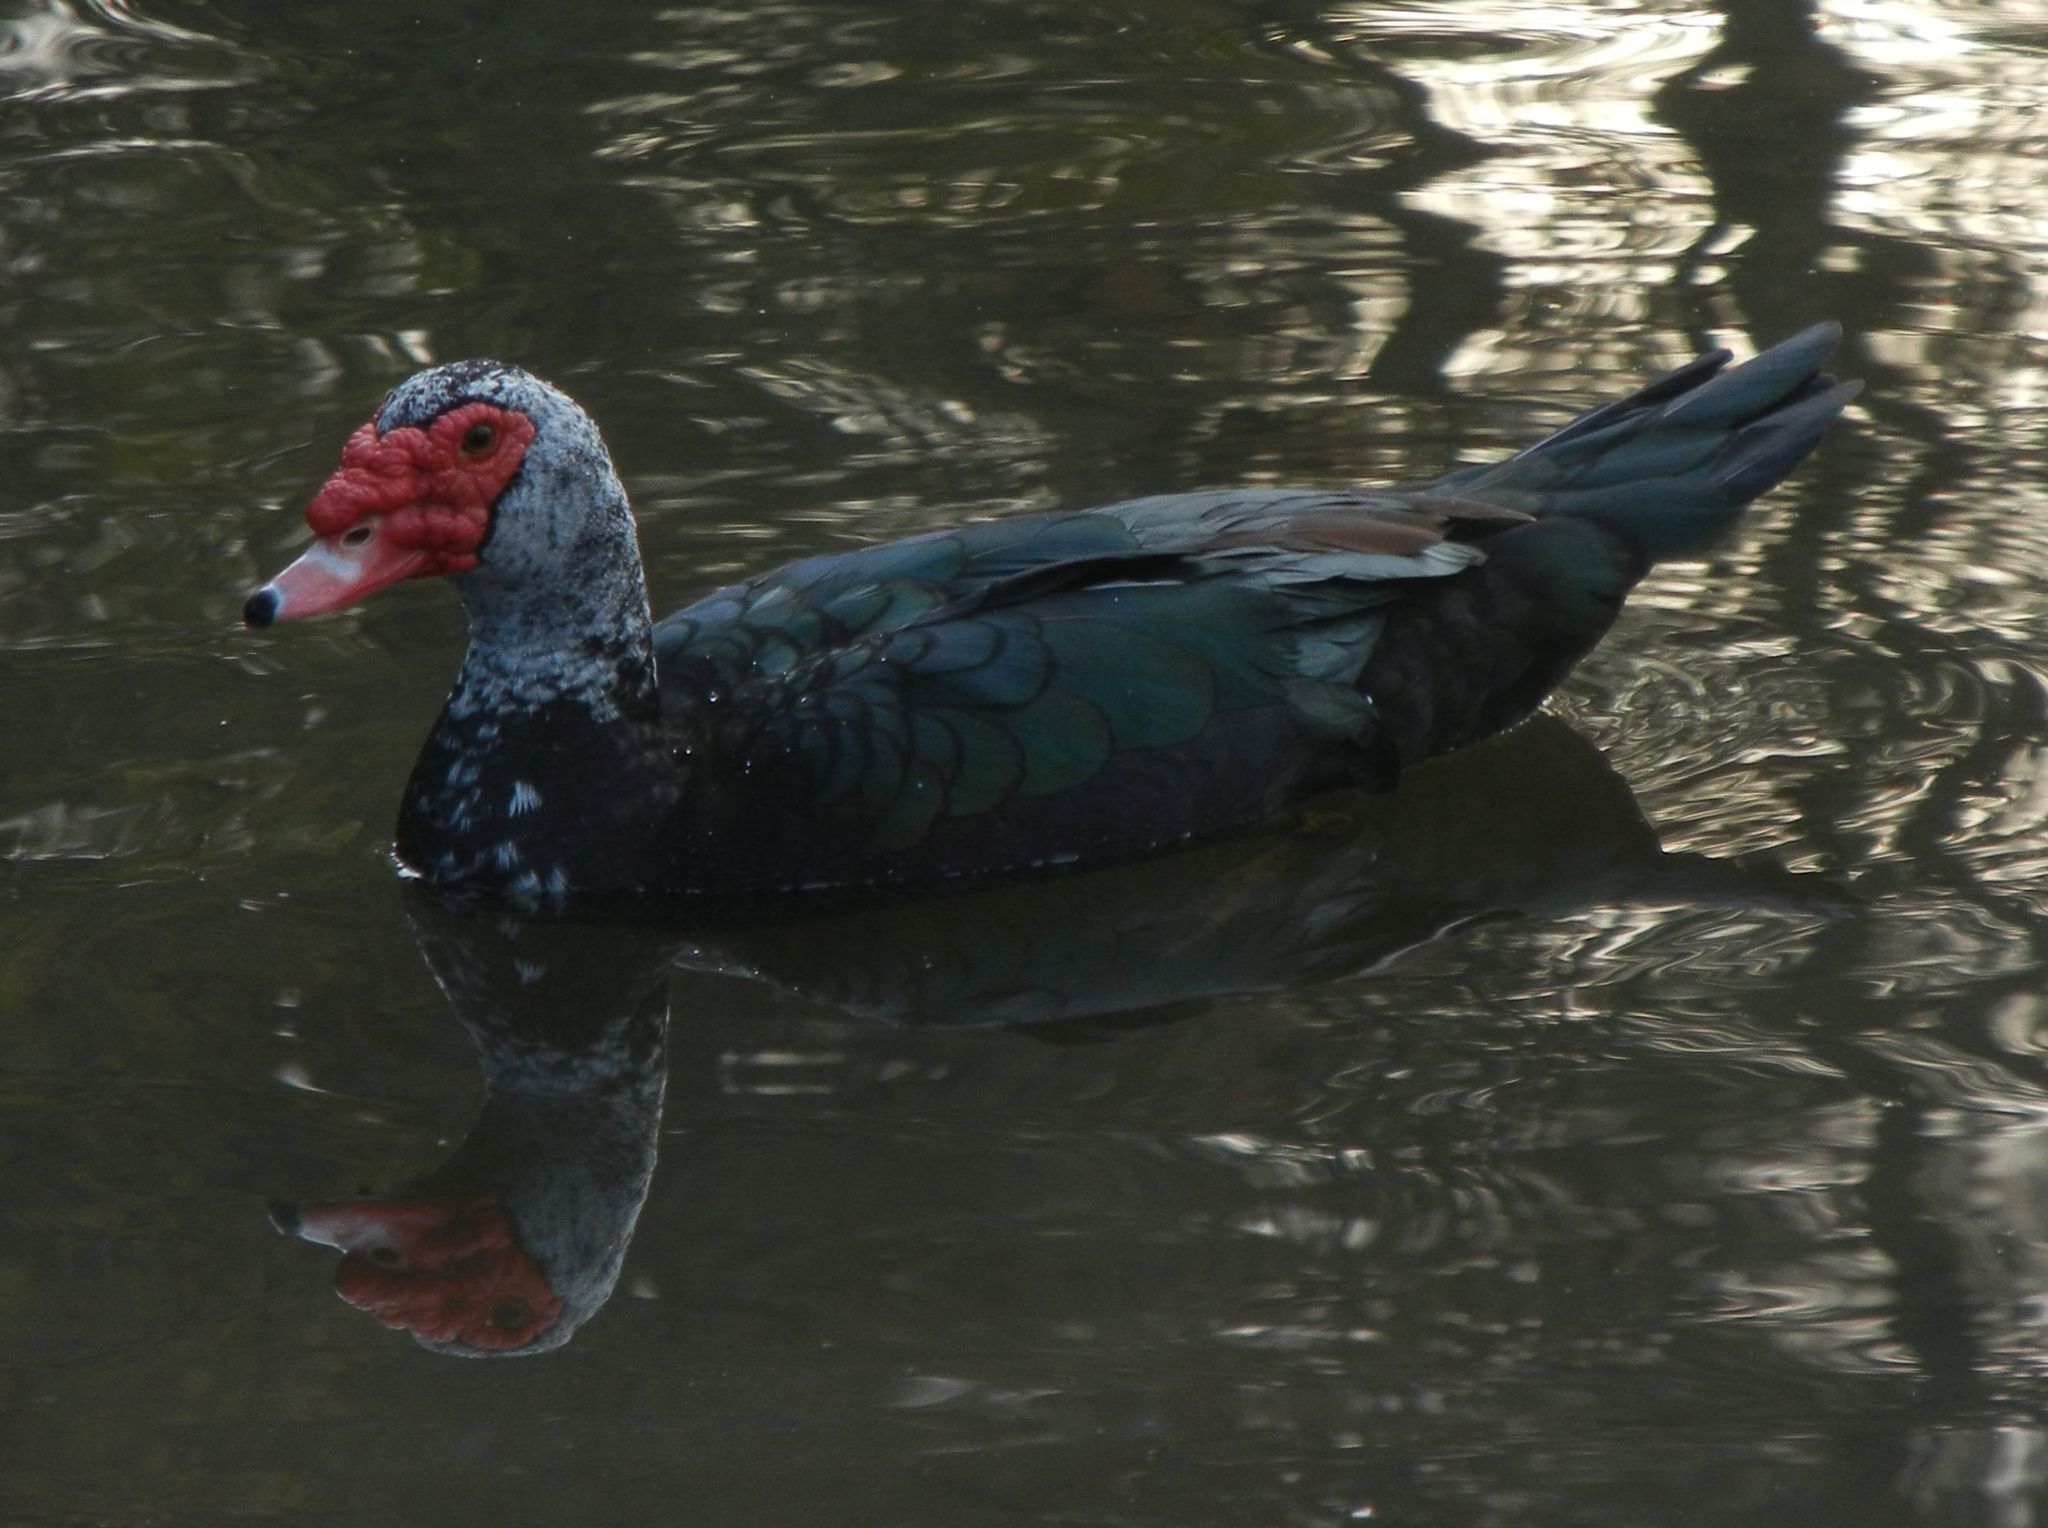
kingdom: Animalia
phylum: Chordata
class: Aves
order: Anseriformes
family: Anatidae
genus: Cairina
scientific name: Cairina moschata
